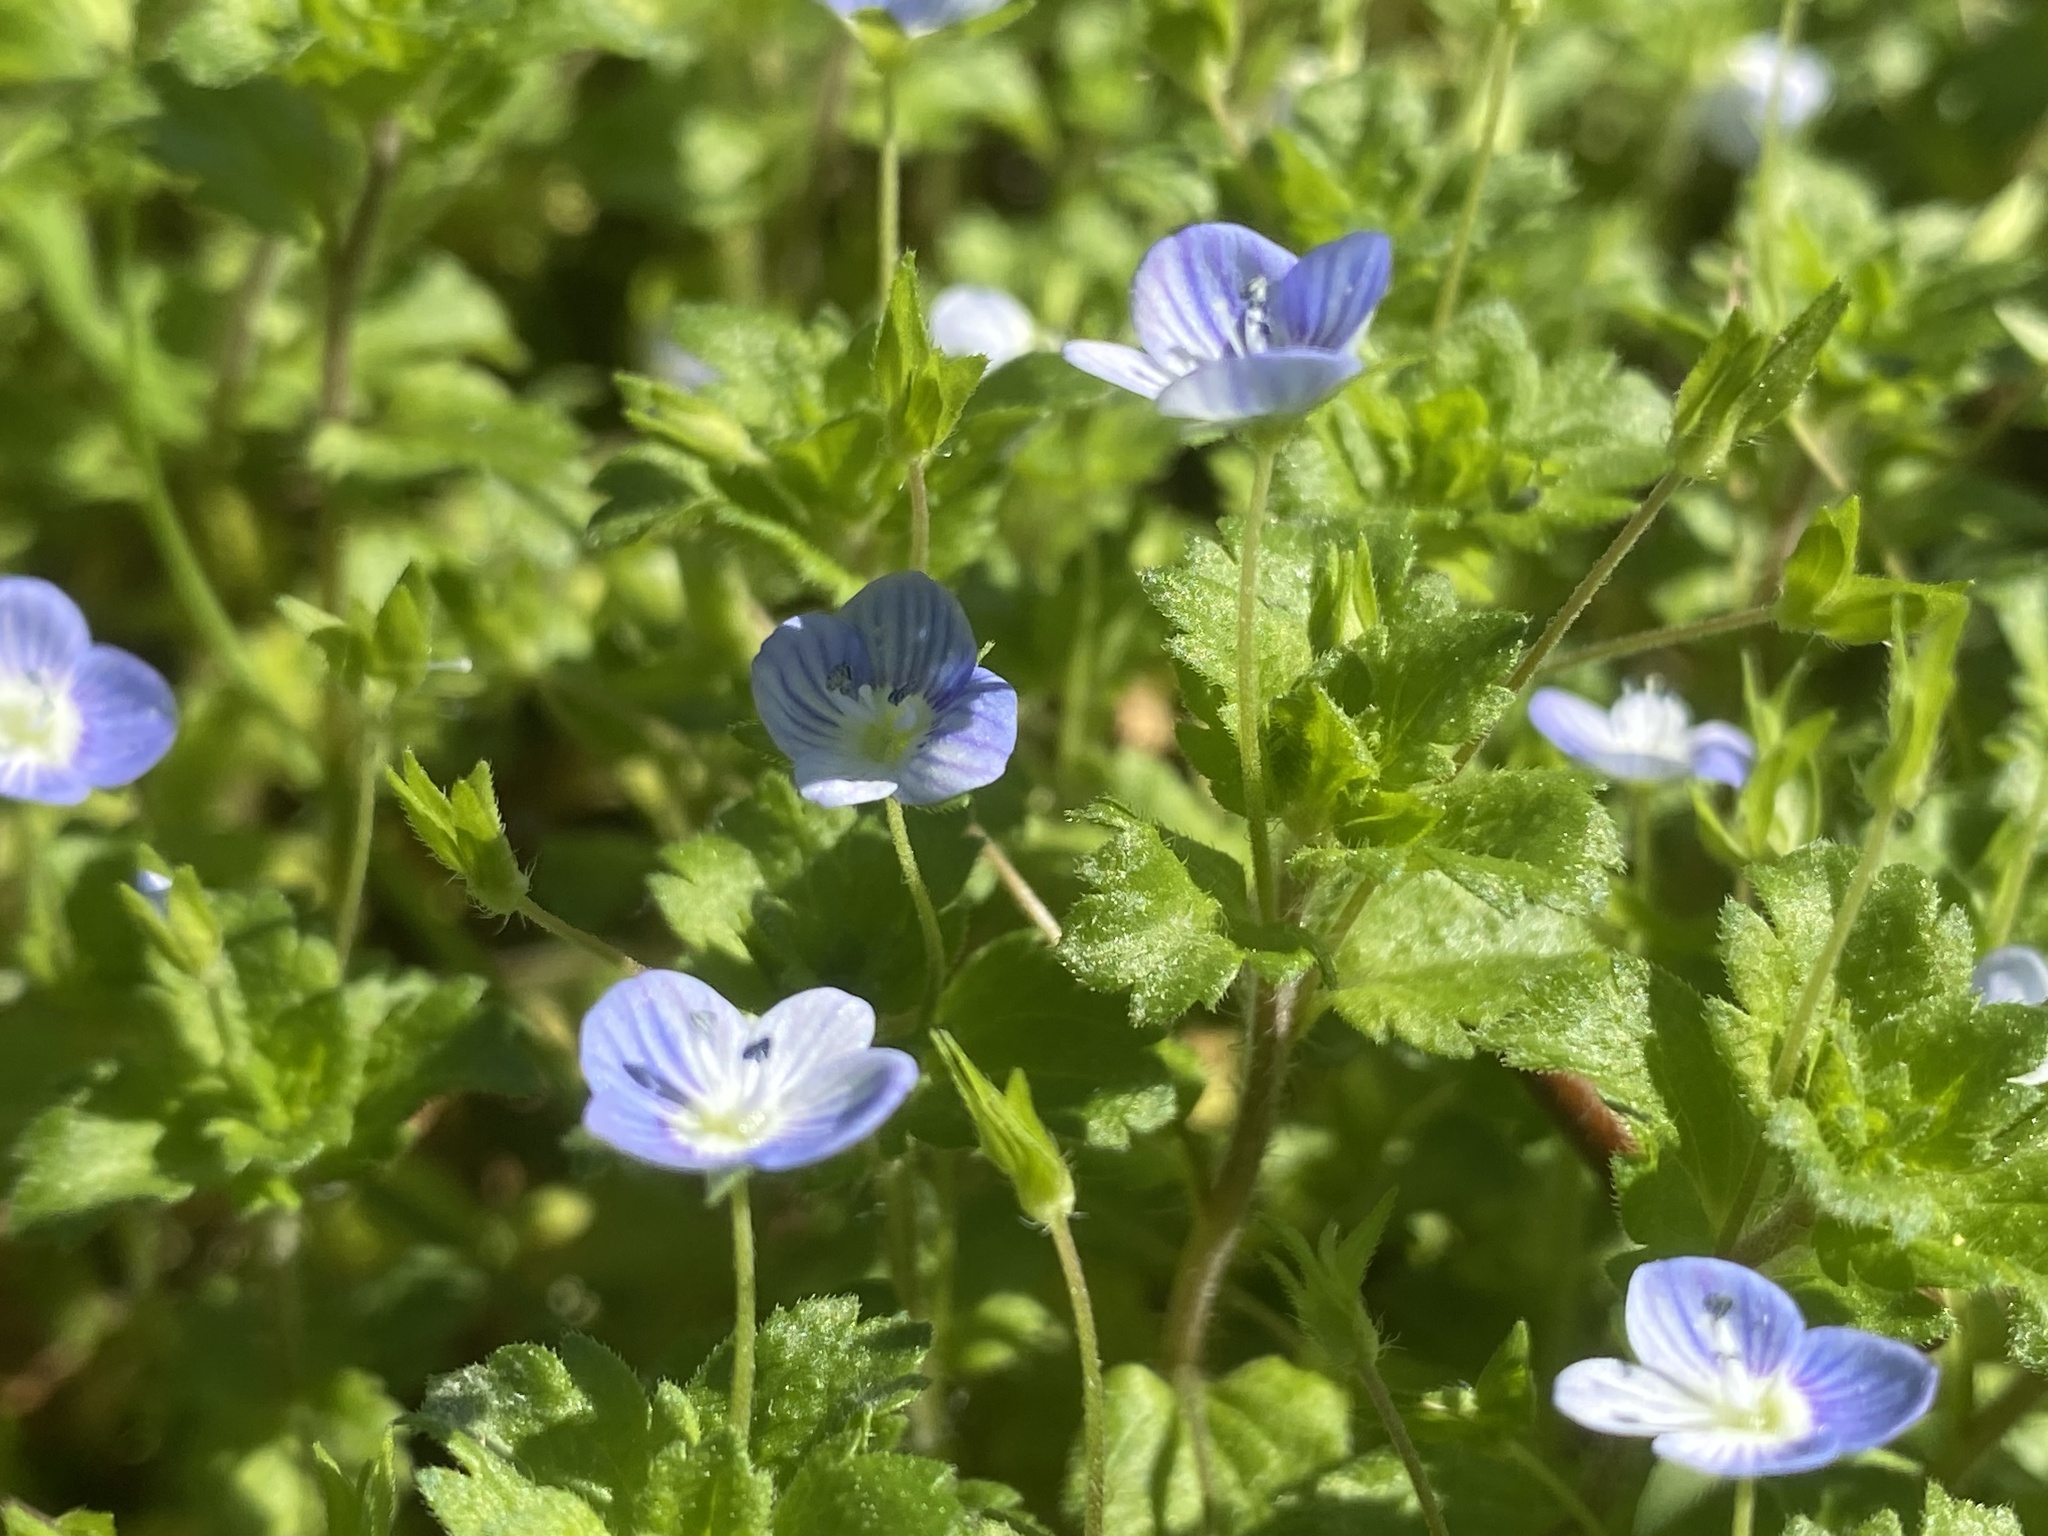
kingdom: Plantae
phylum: Tracheophyta
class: Magnoliopsida
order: Lamiales
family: Plantaginaceae
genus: Veronica
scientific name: Veronica persica
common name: Common field-speedwell
